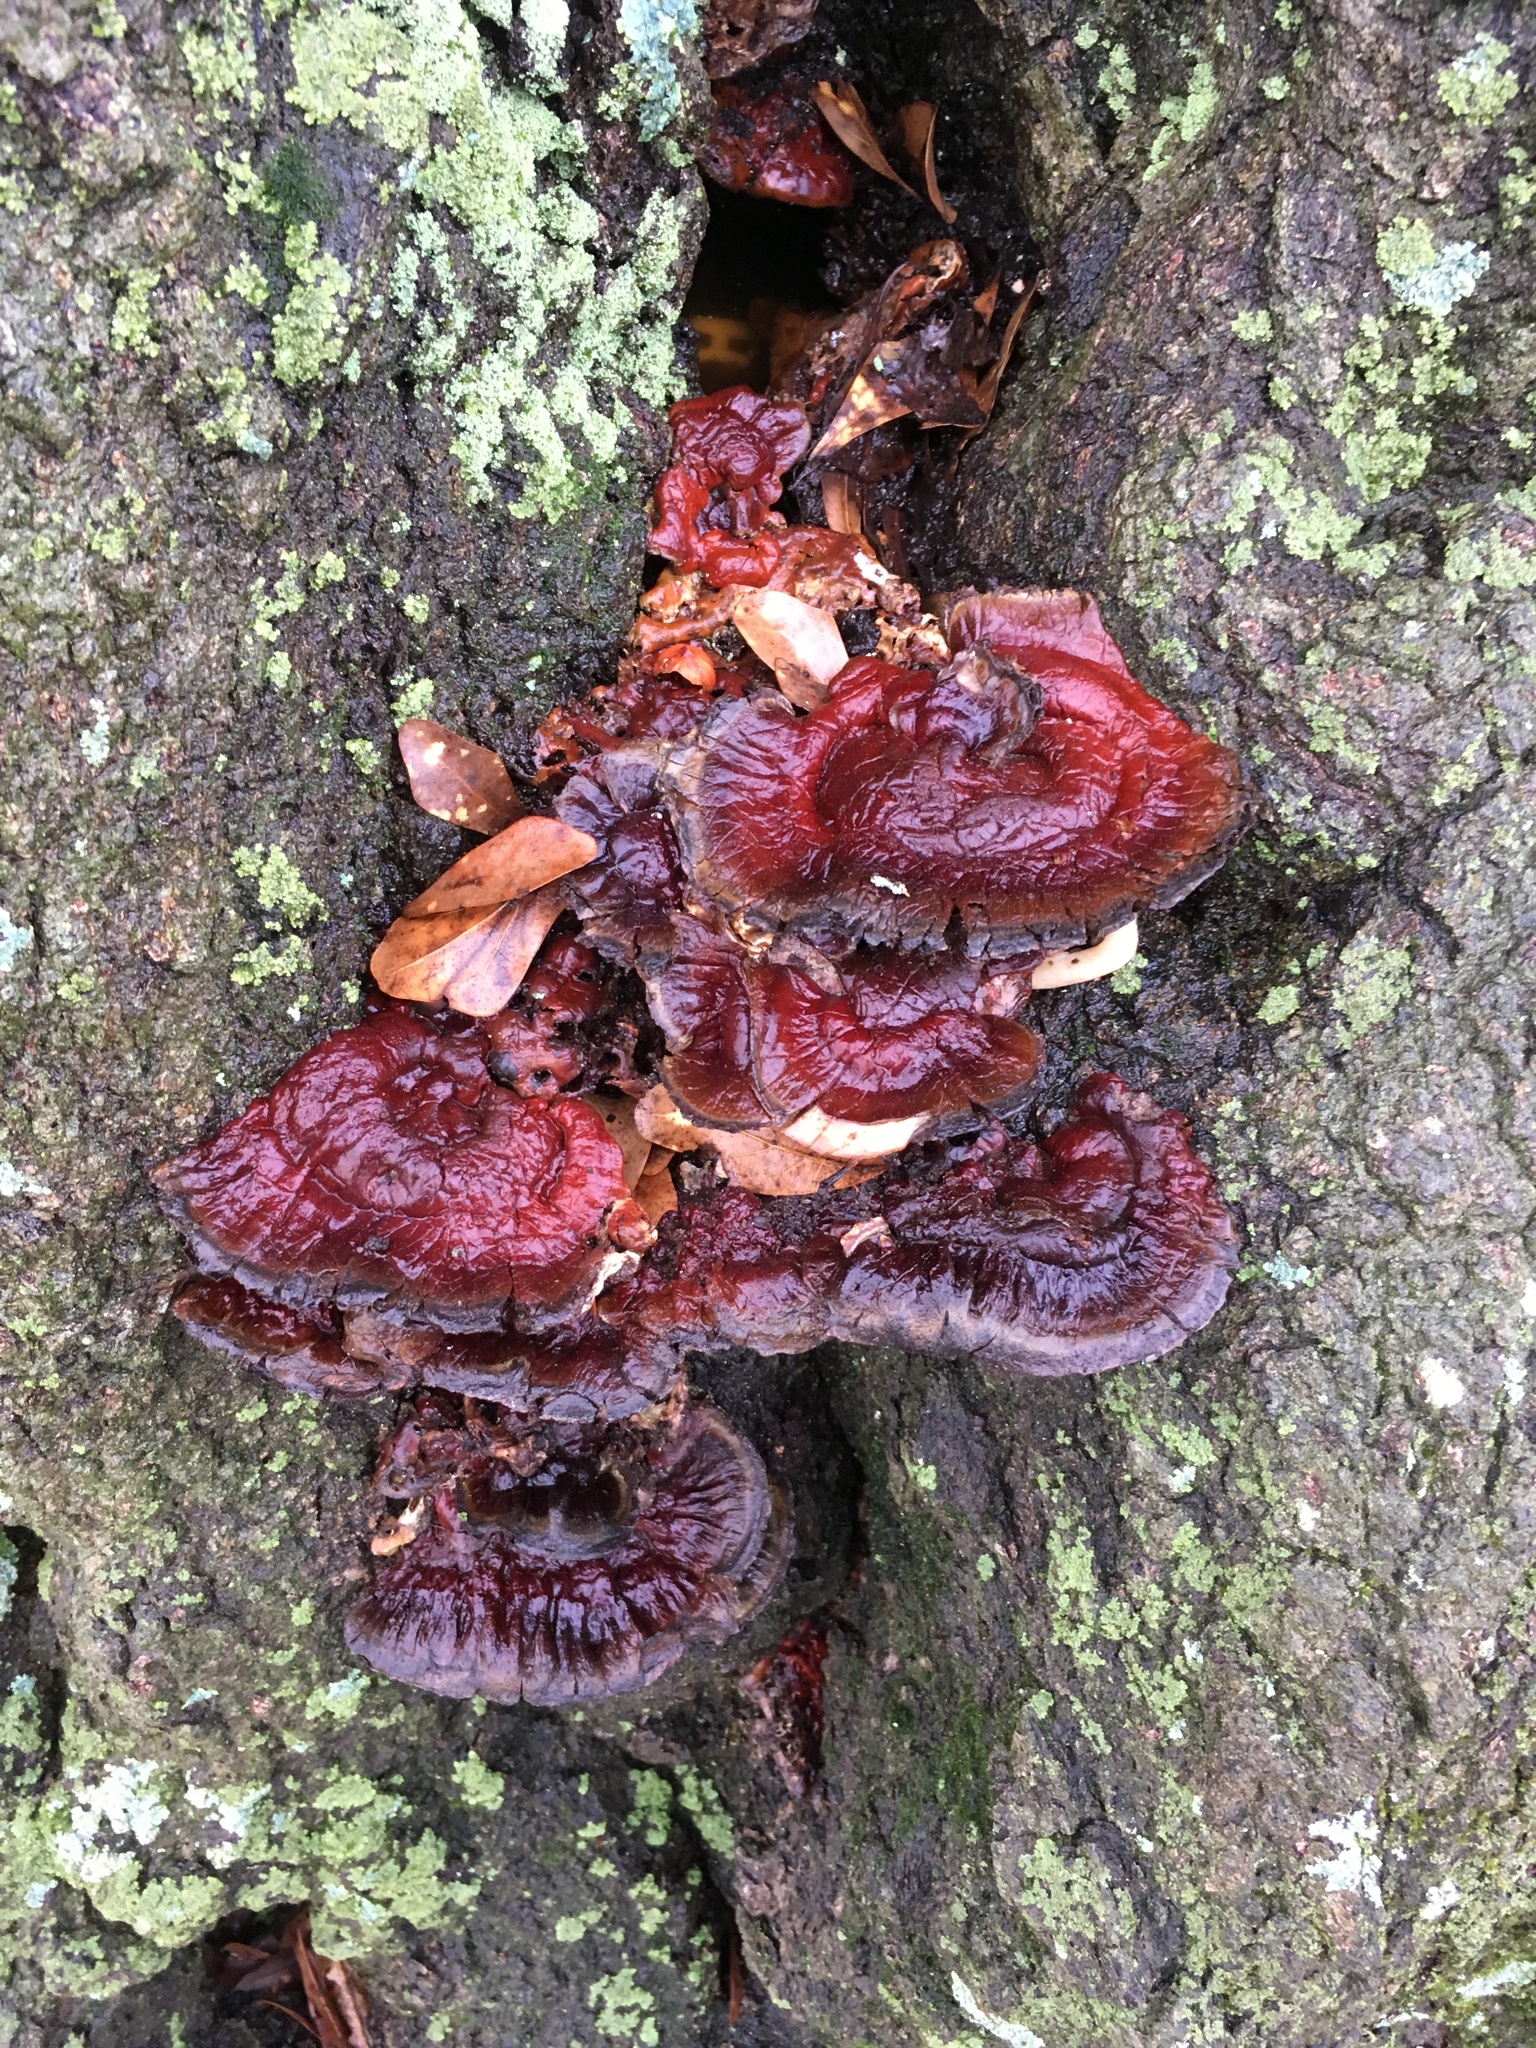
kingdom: Fungi
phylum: Basidiomycota
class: Agaricomycetes
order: Polyporales
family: Polyporaceae
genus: Ganoderma
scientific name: Ganoderma resinaceum
